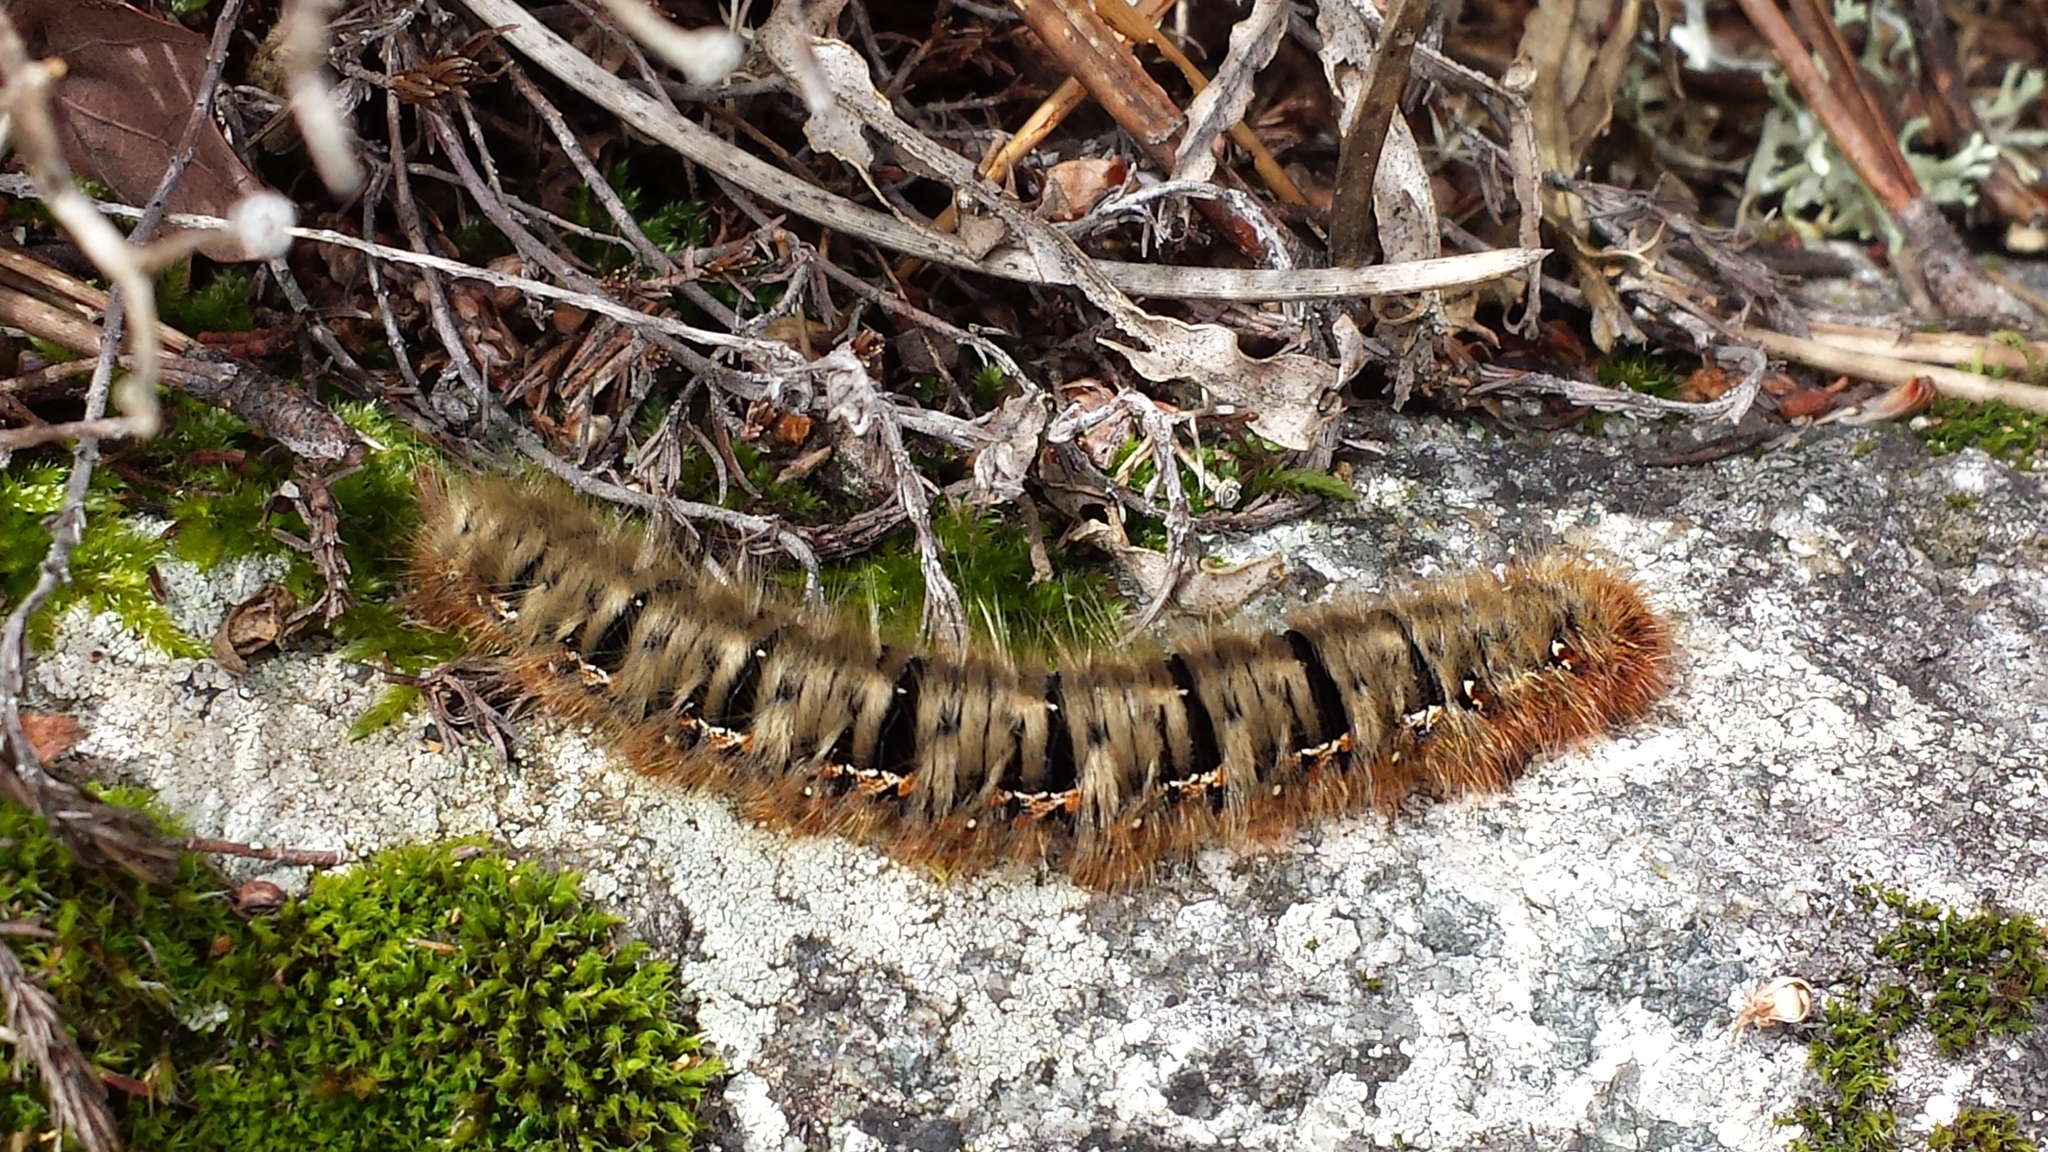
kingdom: Animalia
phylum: Arthropoda
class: Insecta
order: Lepidoptera
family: Lasiocampidae
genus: Lasiocampa
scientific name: Lasiocampa quercus
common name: Oak eggar
